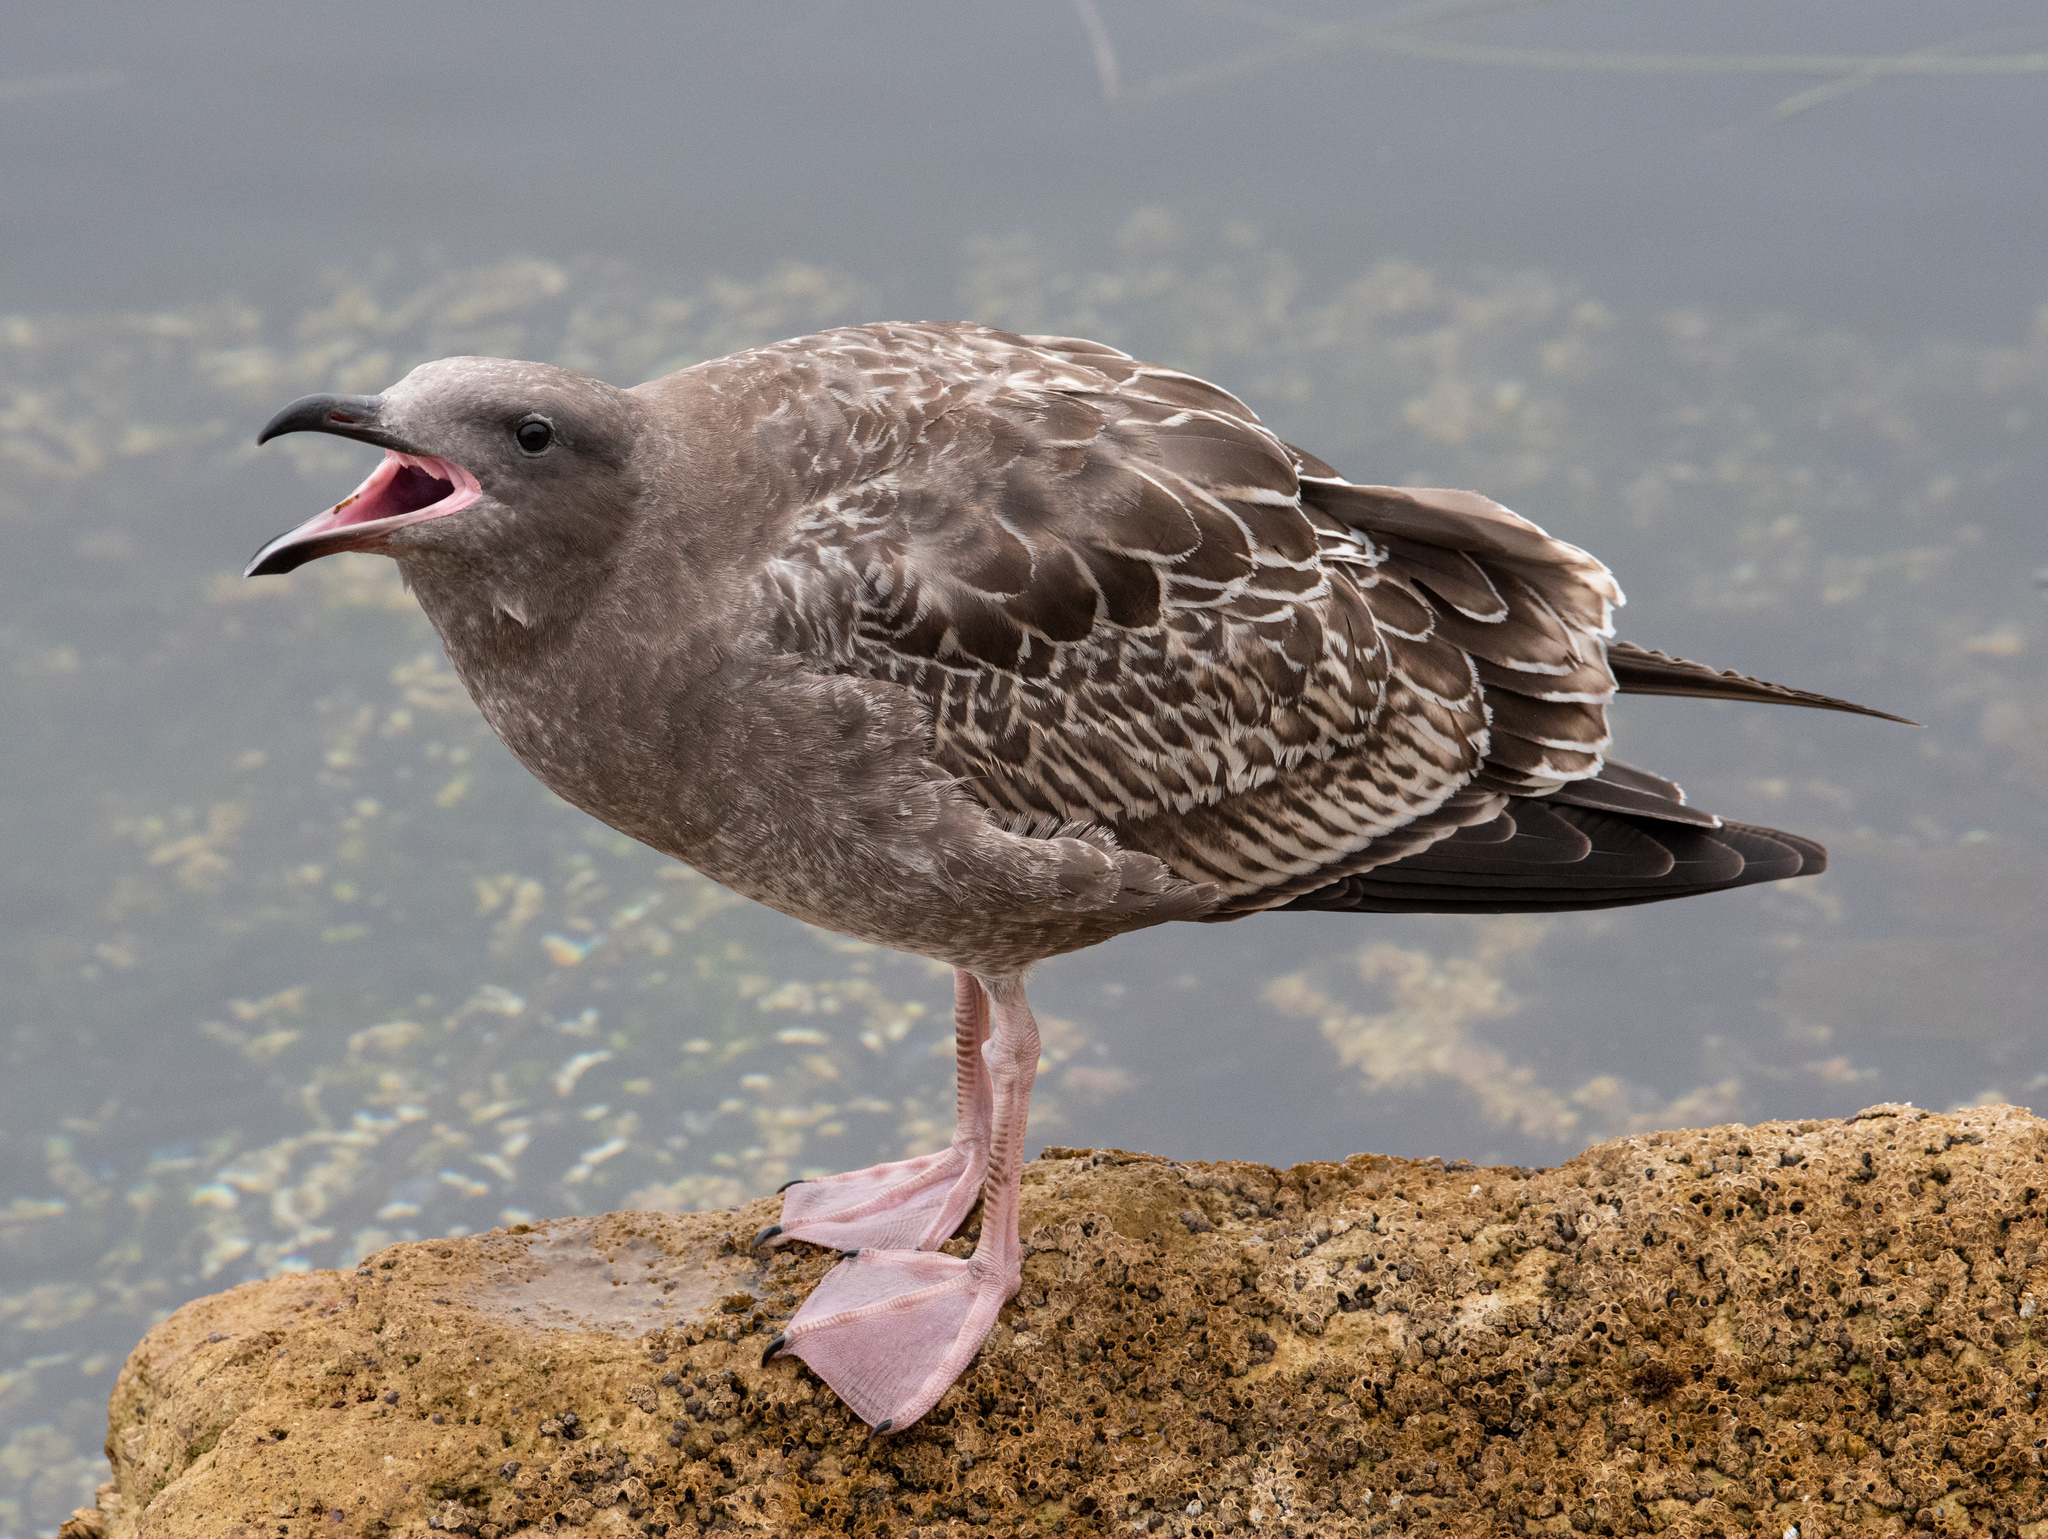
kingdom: Animalia
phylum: Chordata
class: Aves
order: Charadriiformes
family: Laridae
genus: Larus
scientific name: Larus occidentalis
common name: Western gull
